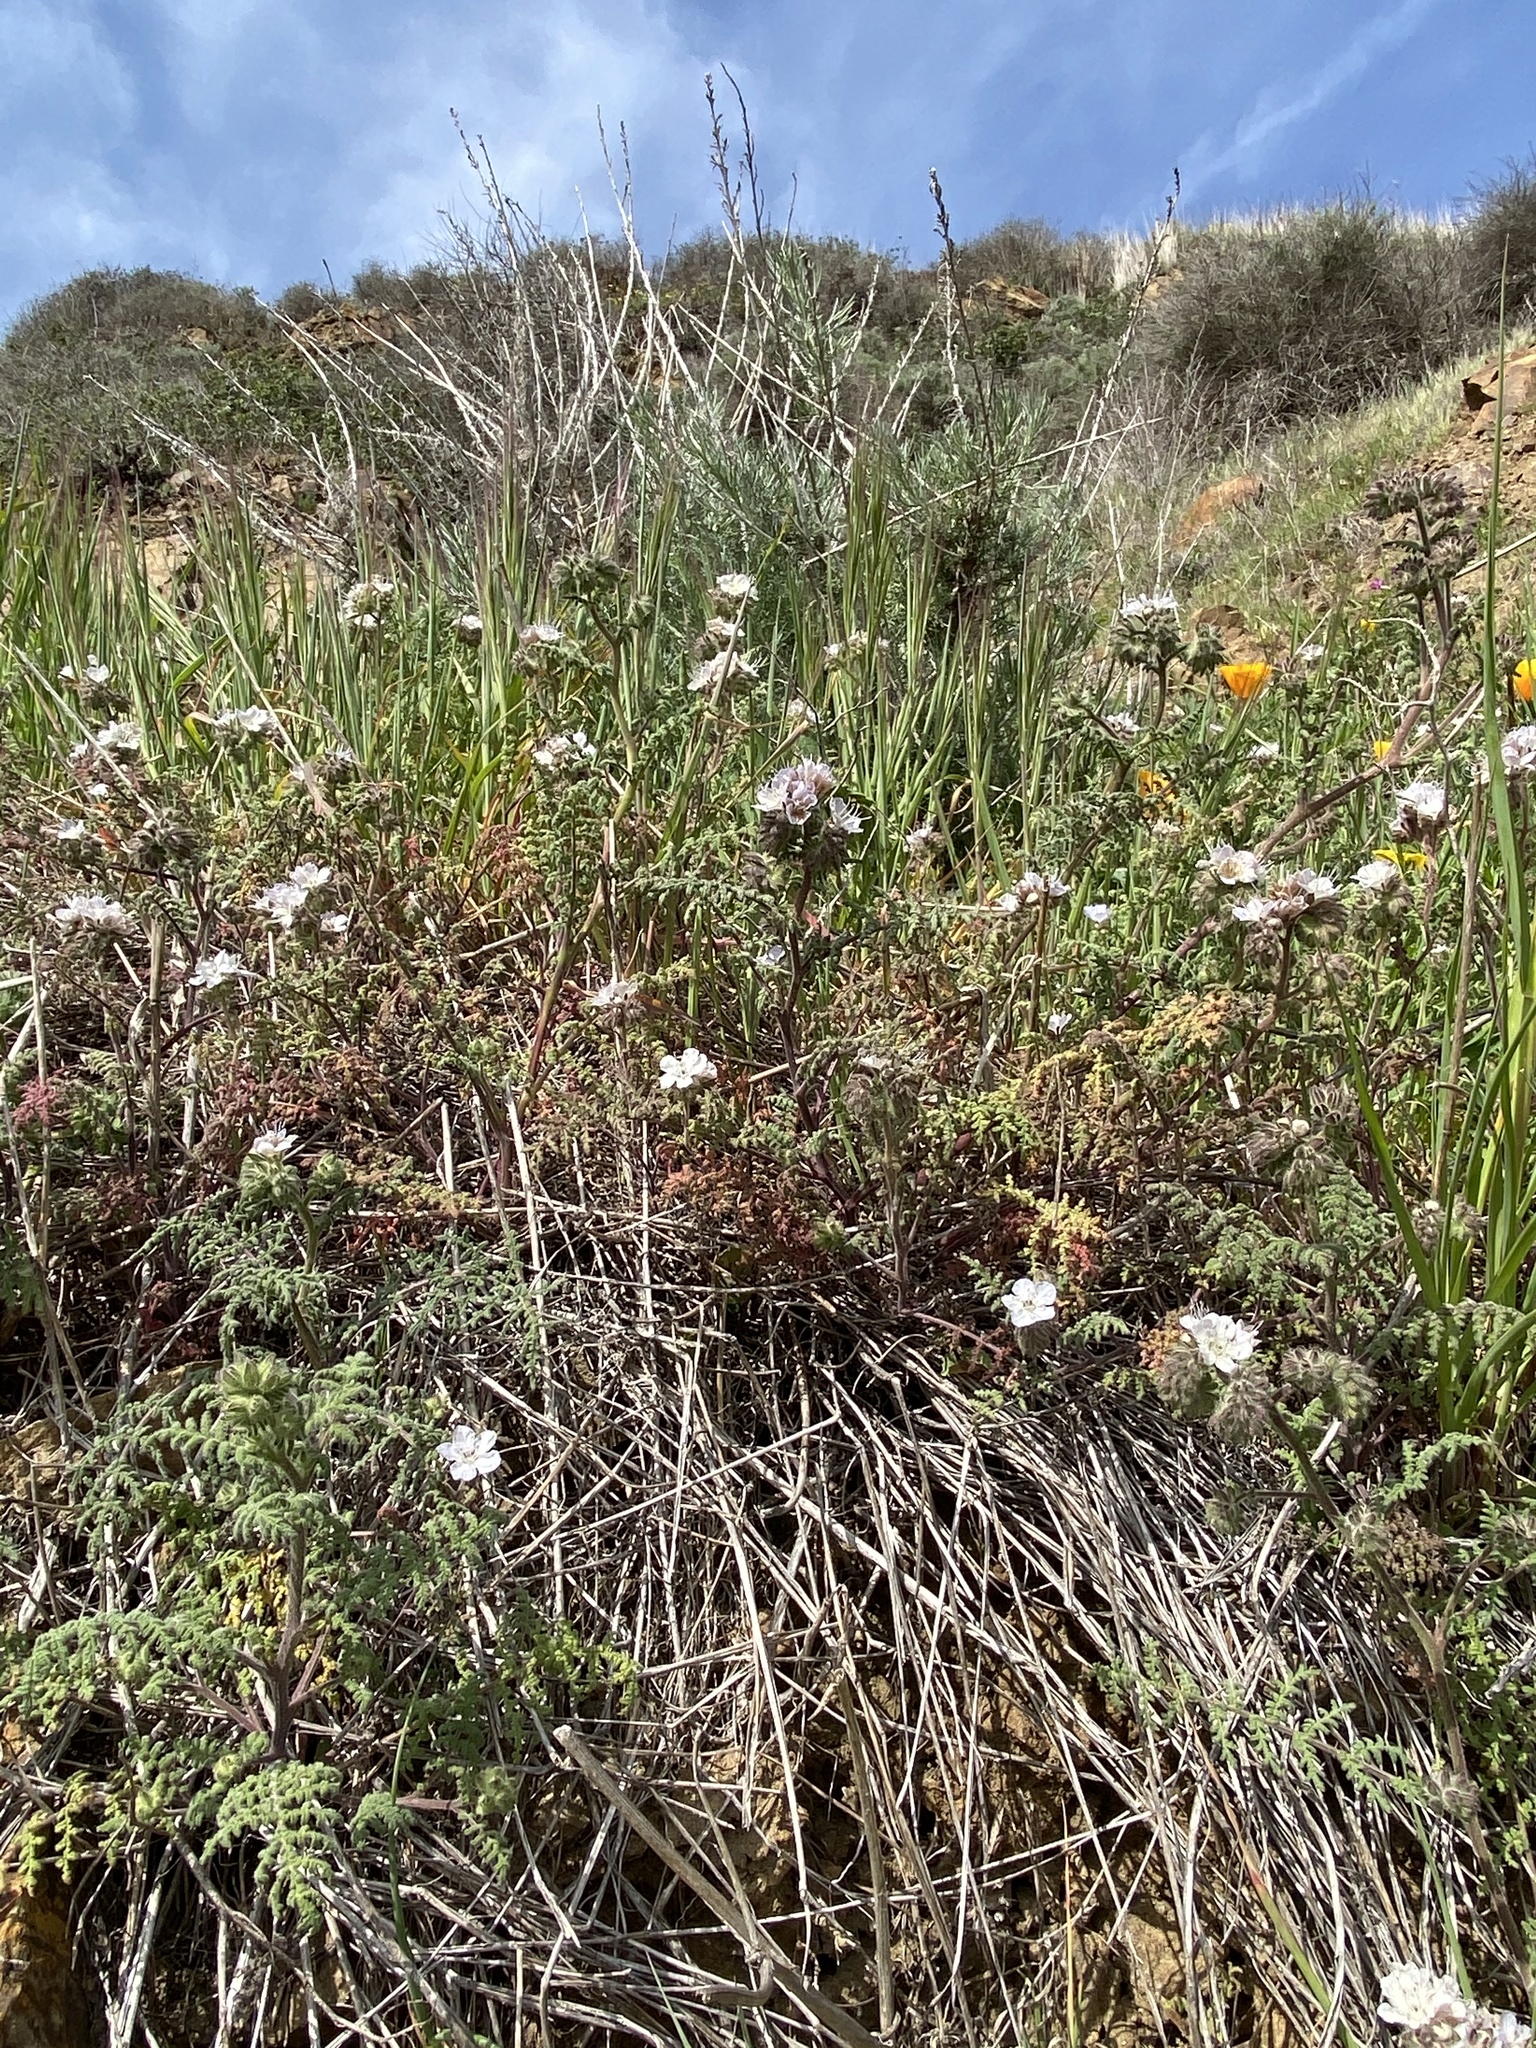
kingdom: Plantae
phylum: Tracheophyta
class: Magnoliopsida
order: Boraginales
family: Hydrophyllaceae
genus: Phacelia
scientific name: Phacelia distans
